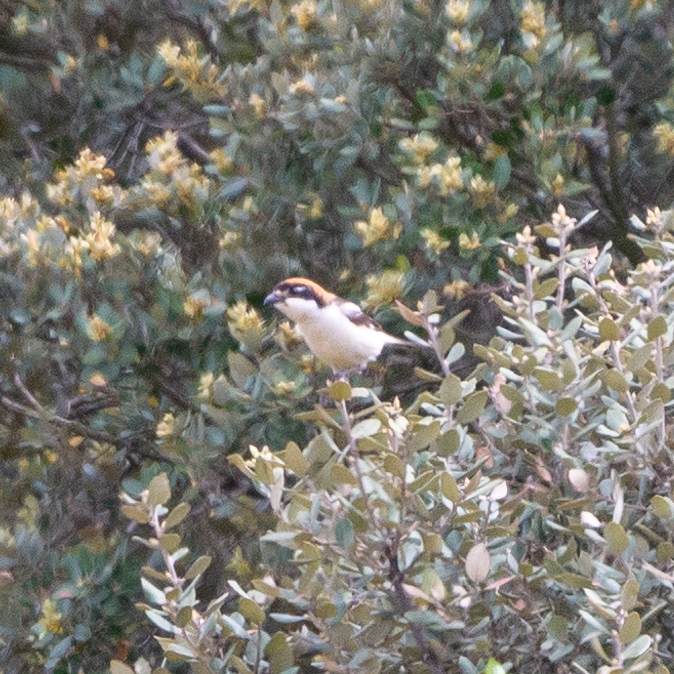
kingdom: Animalia
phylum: Chordata
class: Aves
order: Passeriformes
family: Laniidae
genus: Lanius
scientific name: Lanius senator
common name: Woodchat shrike
